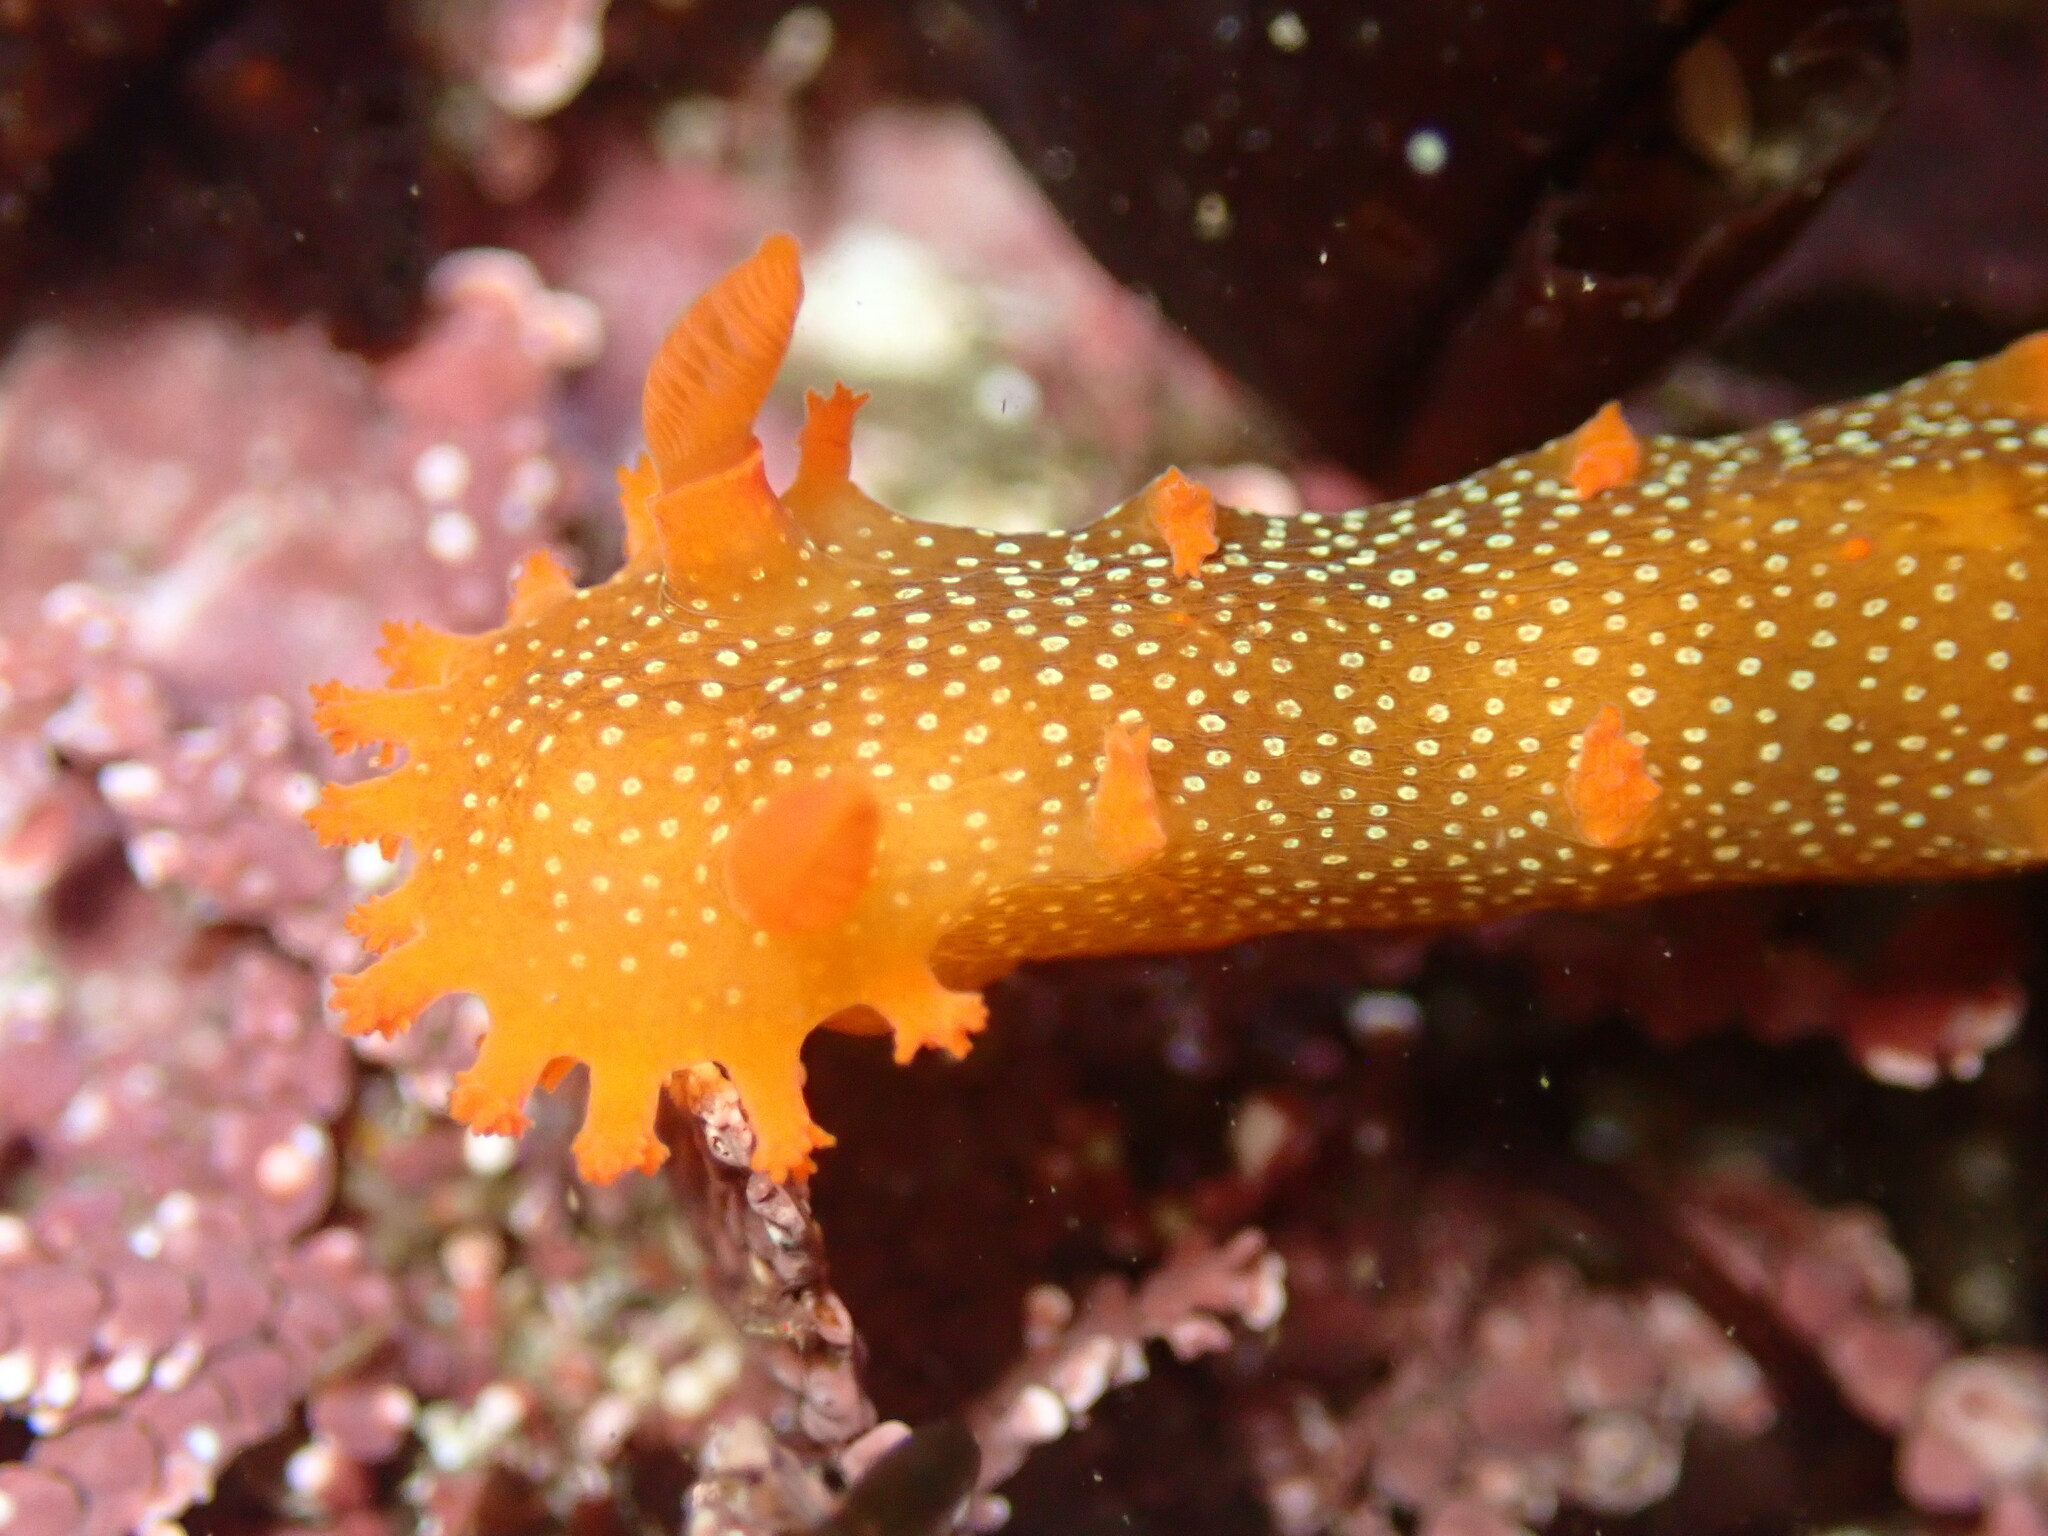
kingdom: Animalia
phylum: Mollusca
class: Gastropoda
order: Nudibranchia
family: Polyceridae
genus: Triopha
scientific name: Triopha maculata
